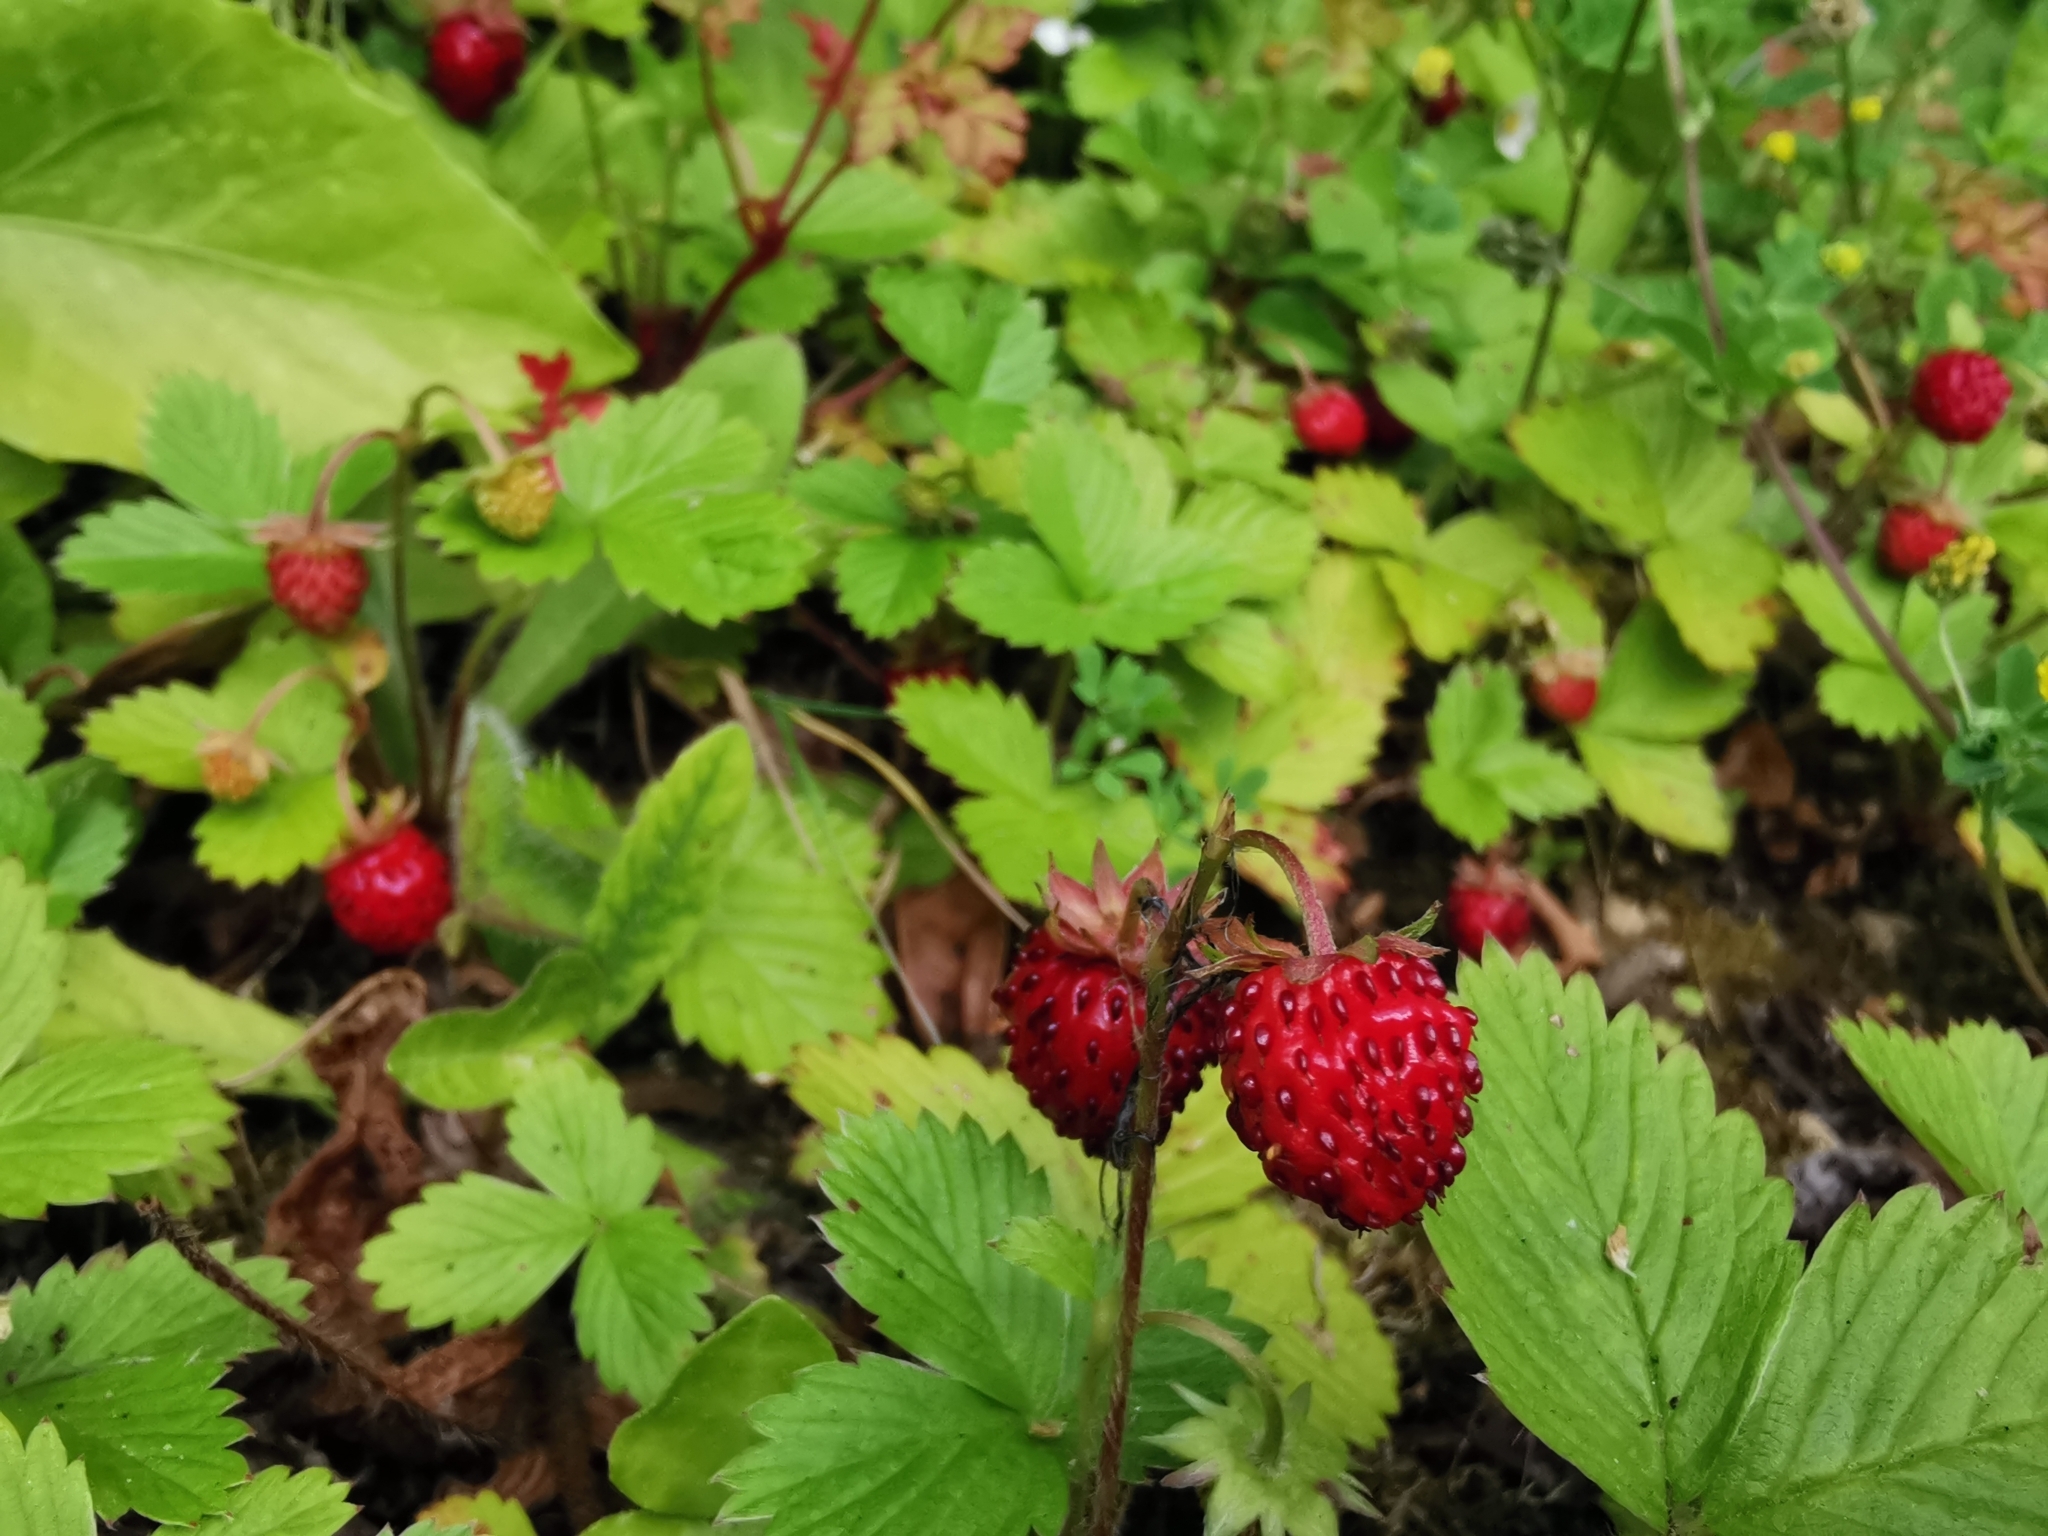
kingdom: Plantae
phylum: Tracheophyta
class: Magnoliopsida
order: Rosales
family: Rosaceae
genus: Fragaria
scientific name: Fragaria vesca
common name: Wild strawberry
